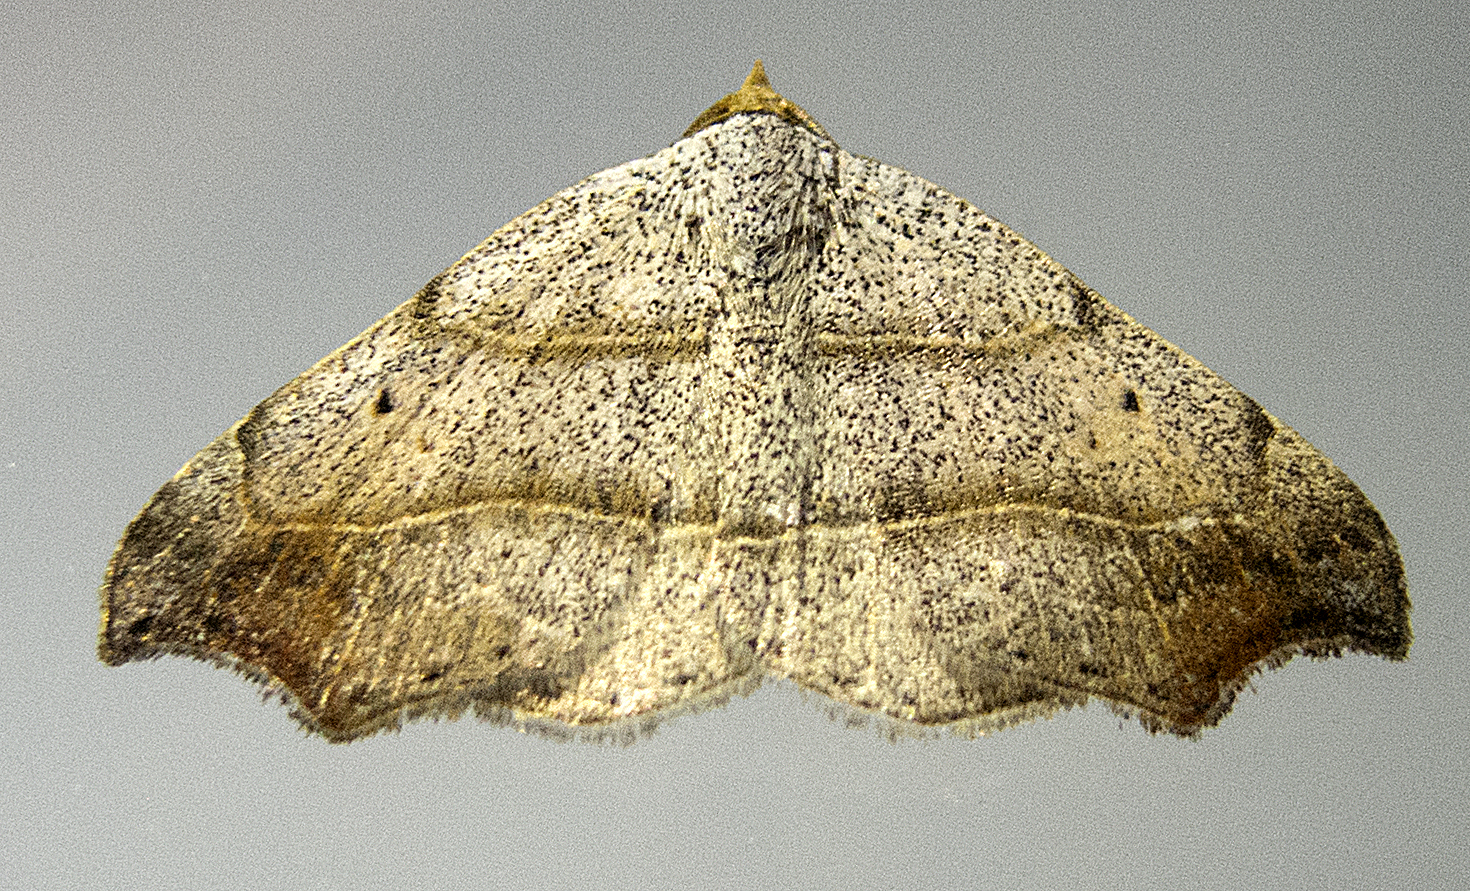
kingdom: Animalia
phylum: Arthropoda
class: Insecta
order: Lepidoptera
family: Erebidae
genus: Laspeyria
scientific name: Laspeyria flexula
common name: Beautiful hook-tip
